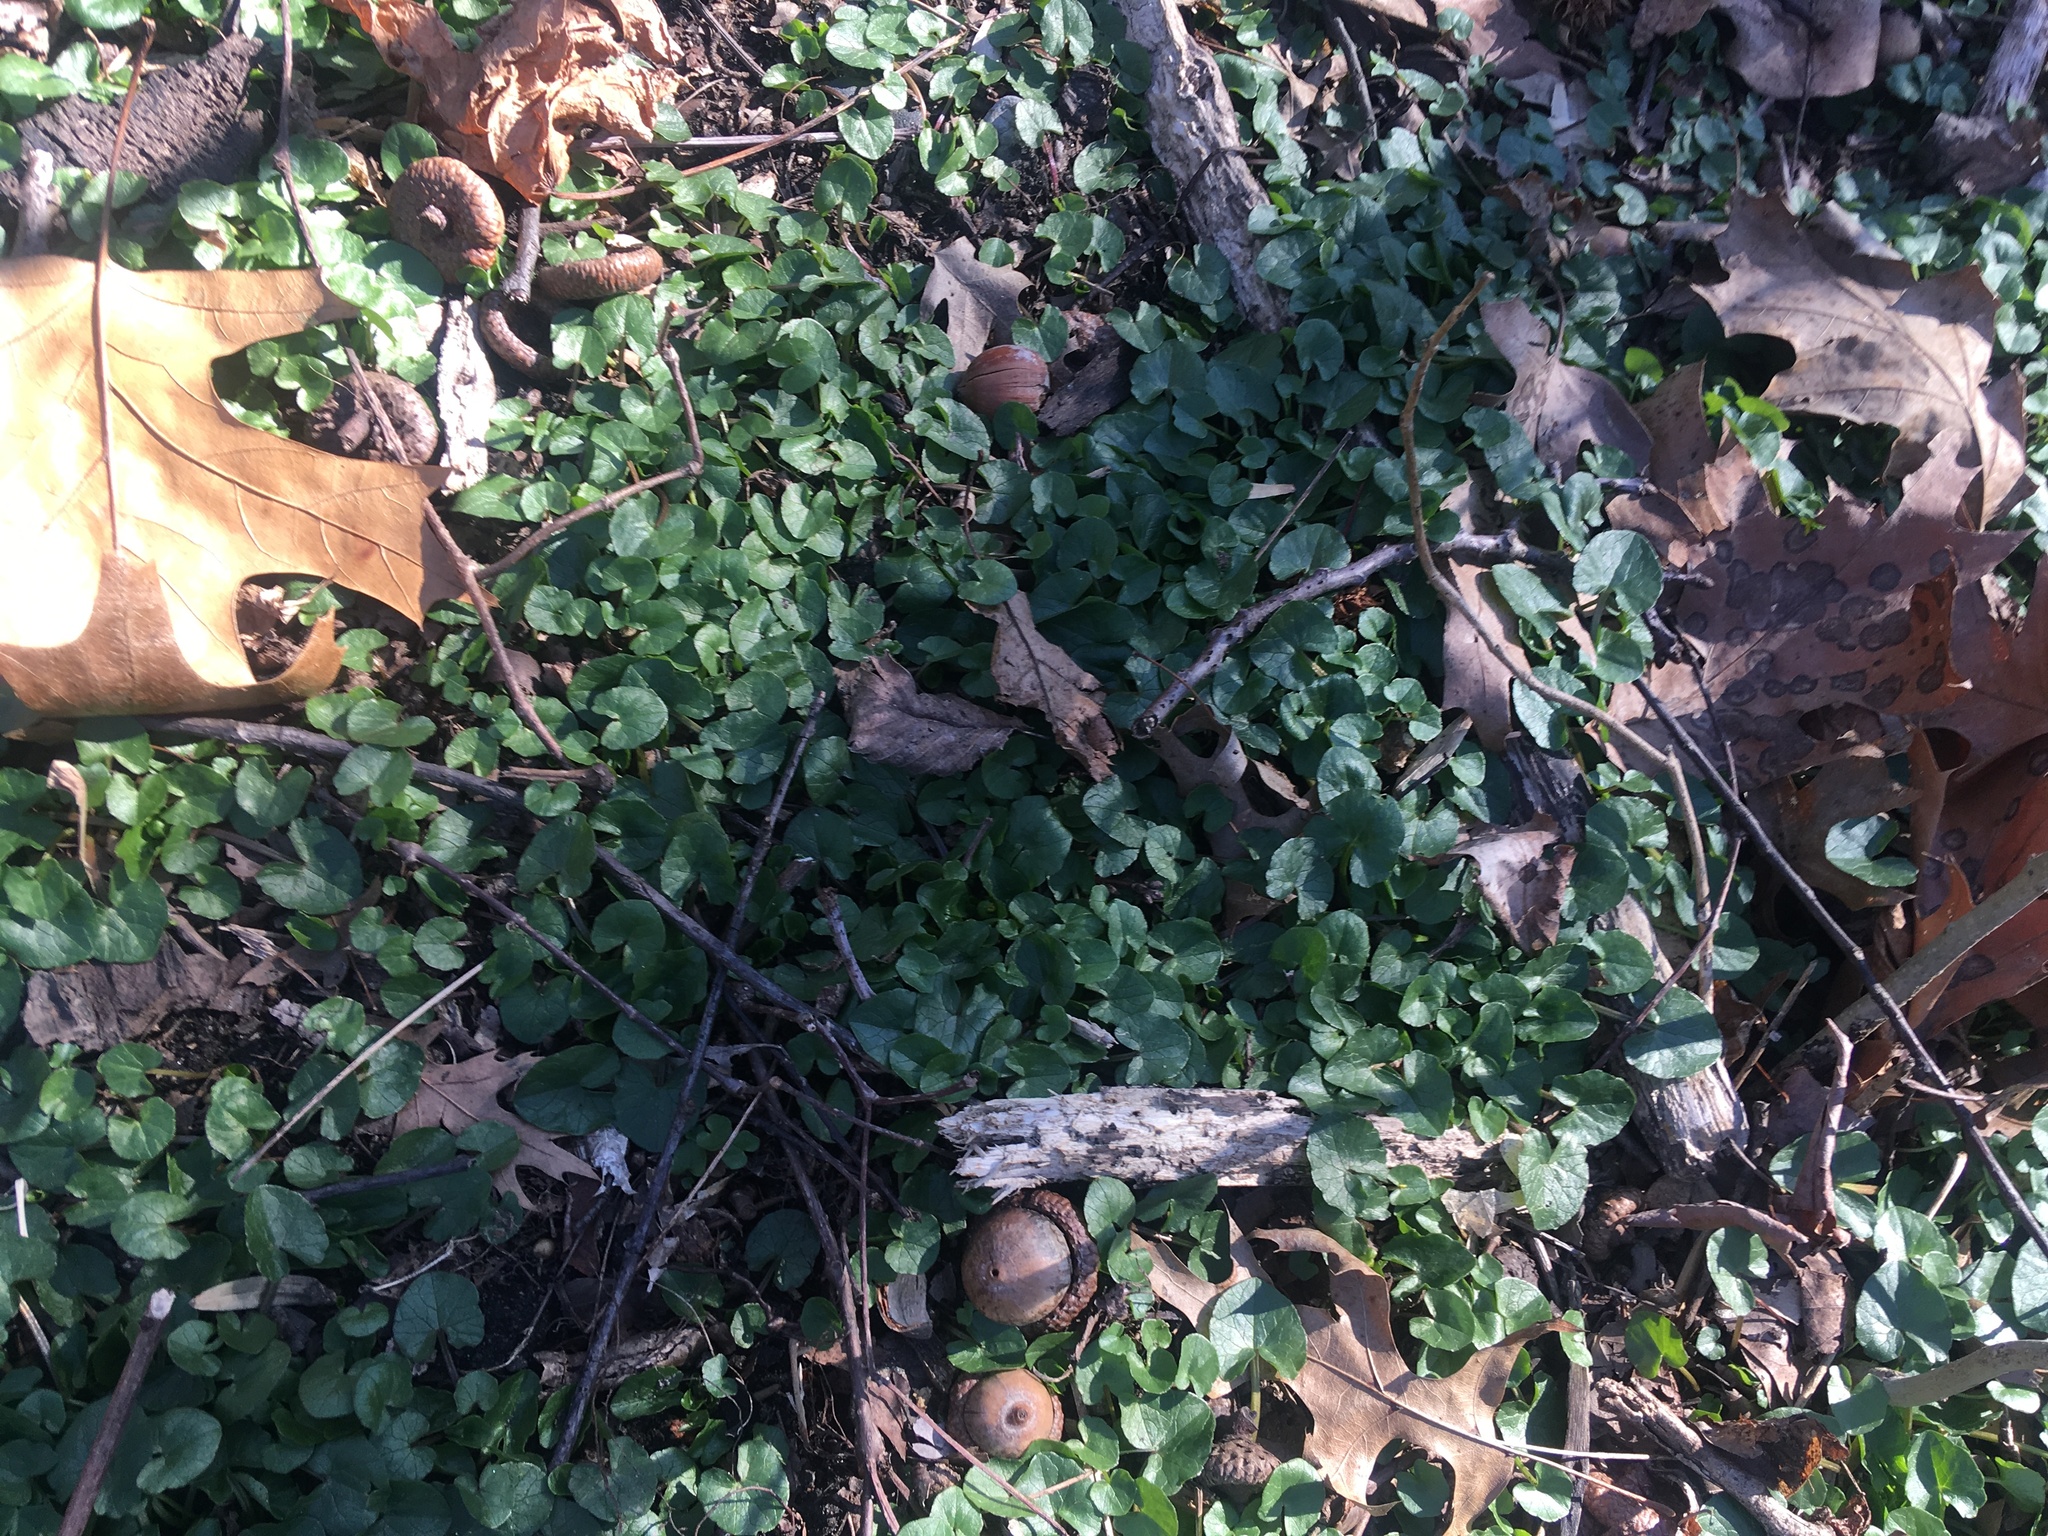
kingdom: Plantae
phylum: Tracheophyta
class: Magnoliopsida
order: Ranunculales
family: Ranunculaceae
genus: Ficaria
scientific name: Ficaria verna
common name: Lesser celandine
